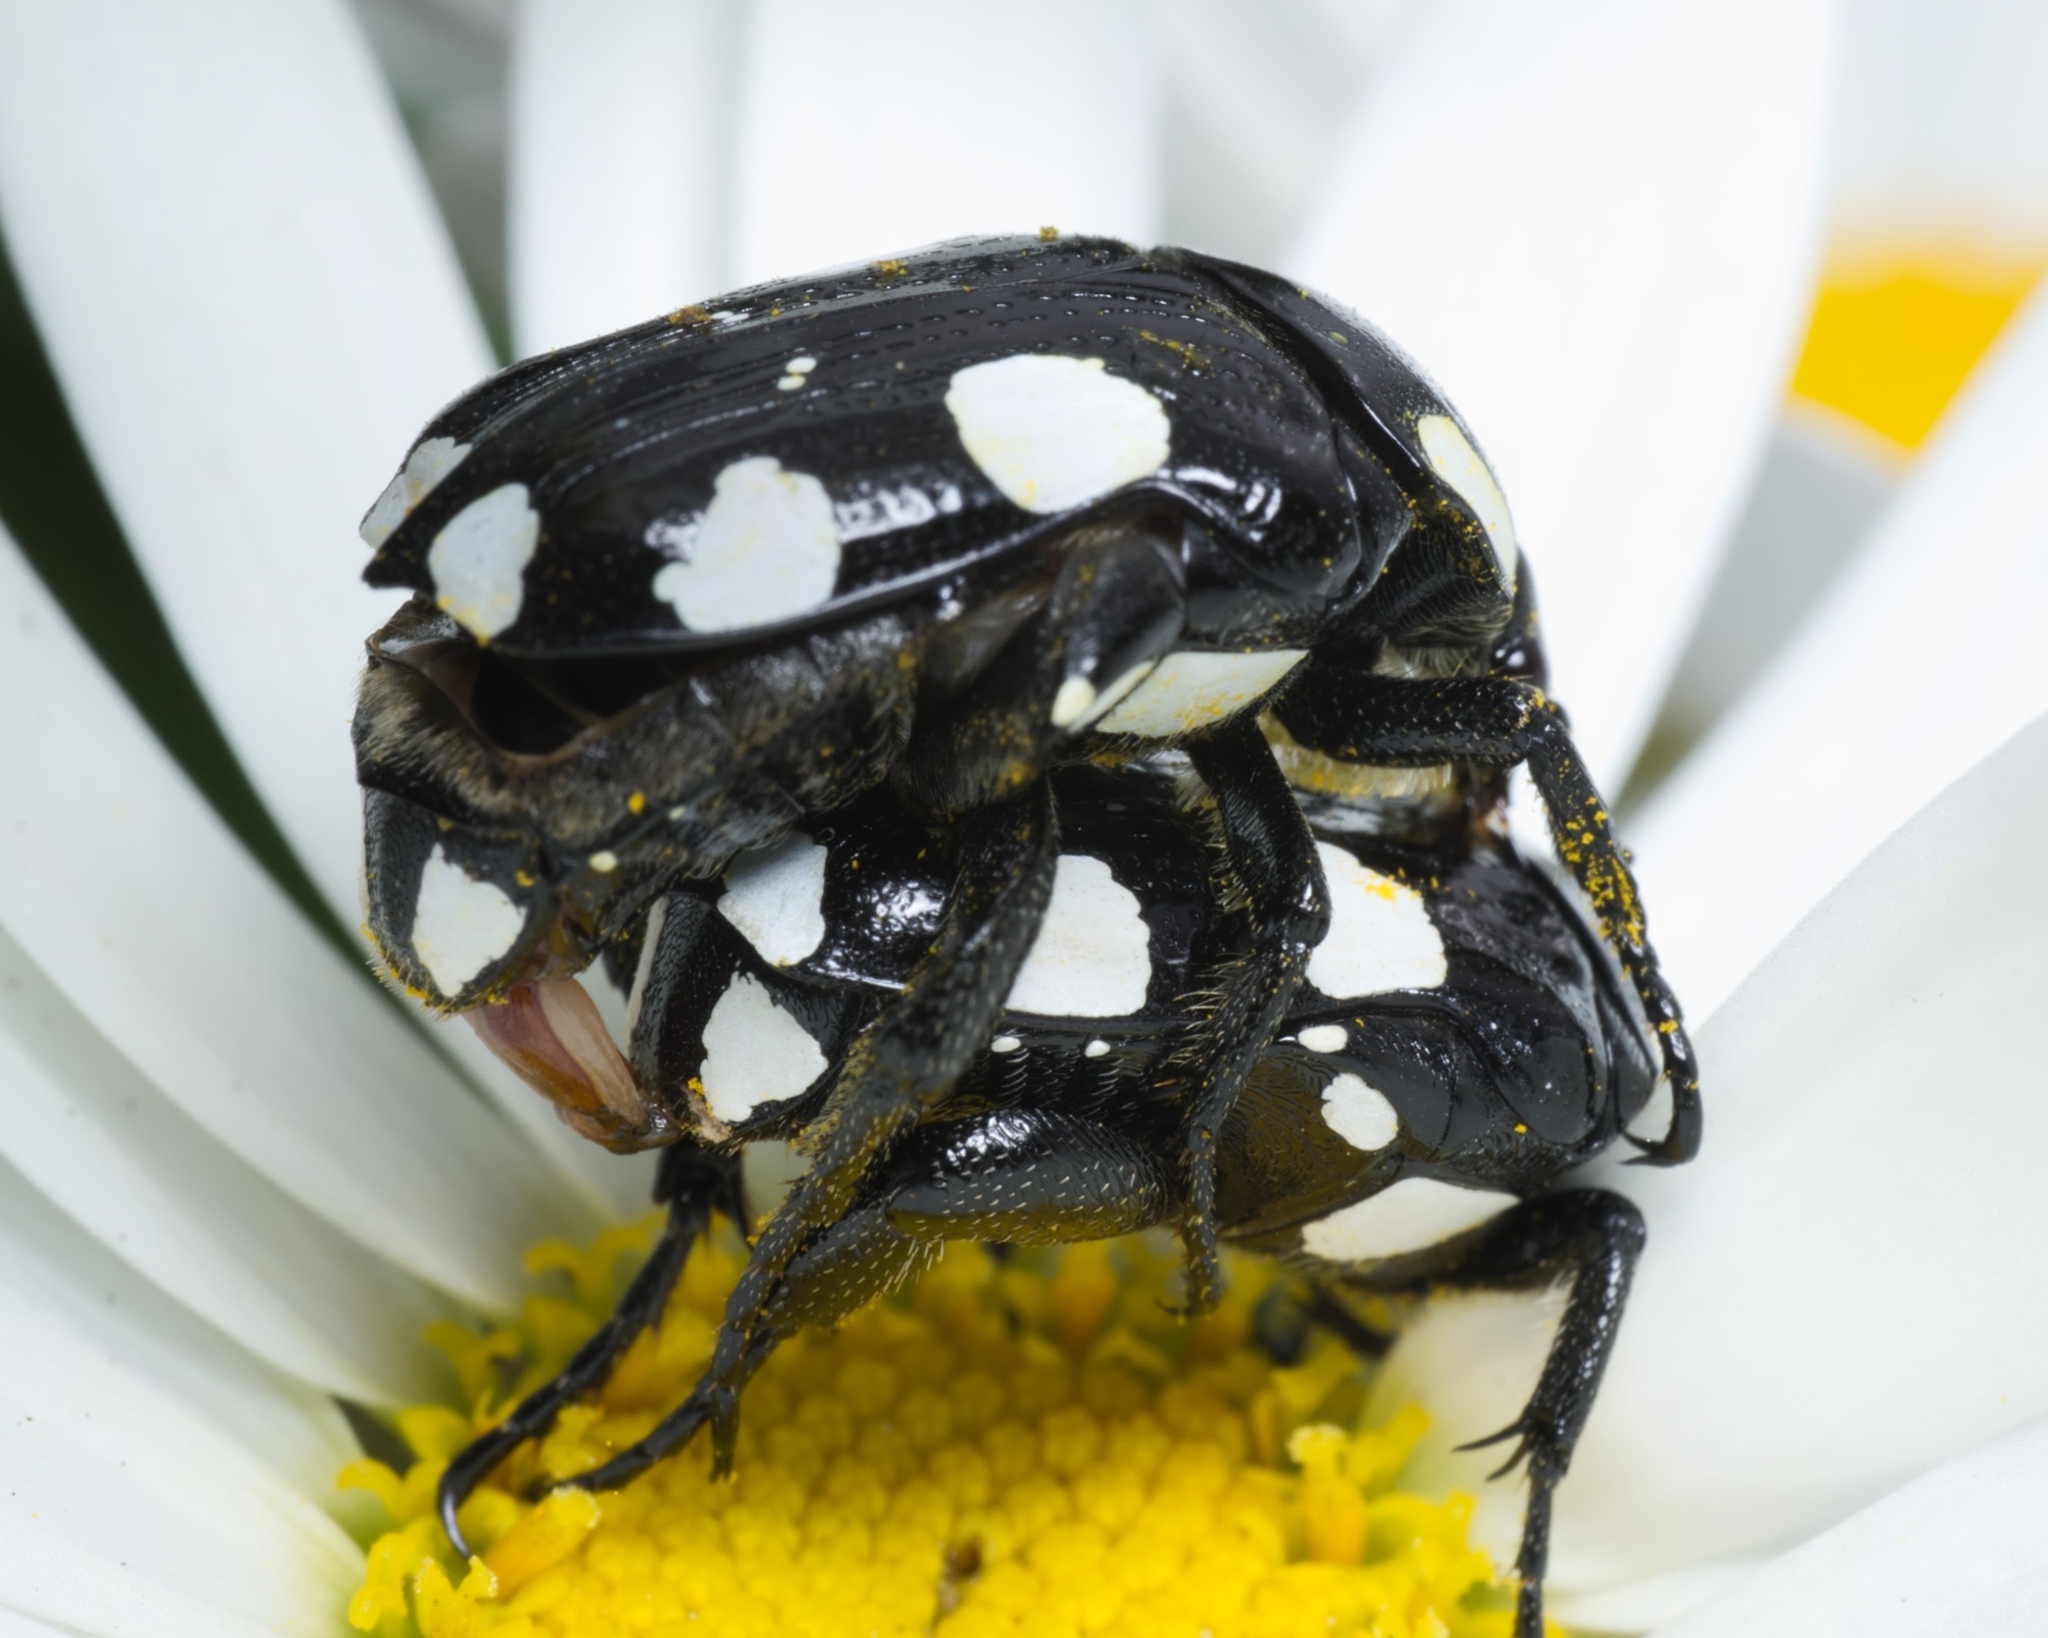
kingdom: Animalia
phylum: Arthropoda
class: Insecta
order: Coleoptera
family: Scarabaeidae
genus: Mausoleopsis
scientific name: Mausoleopsis amabilis
